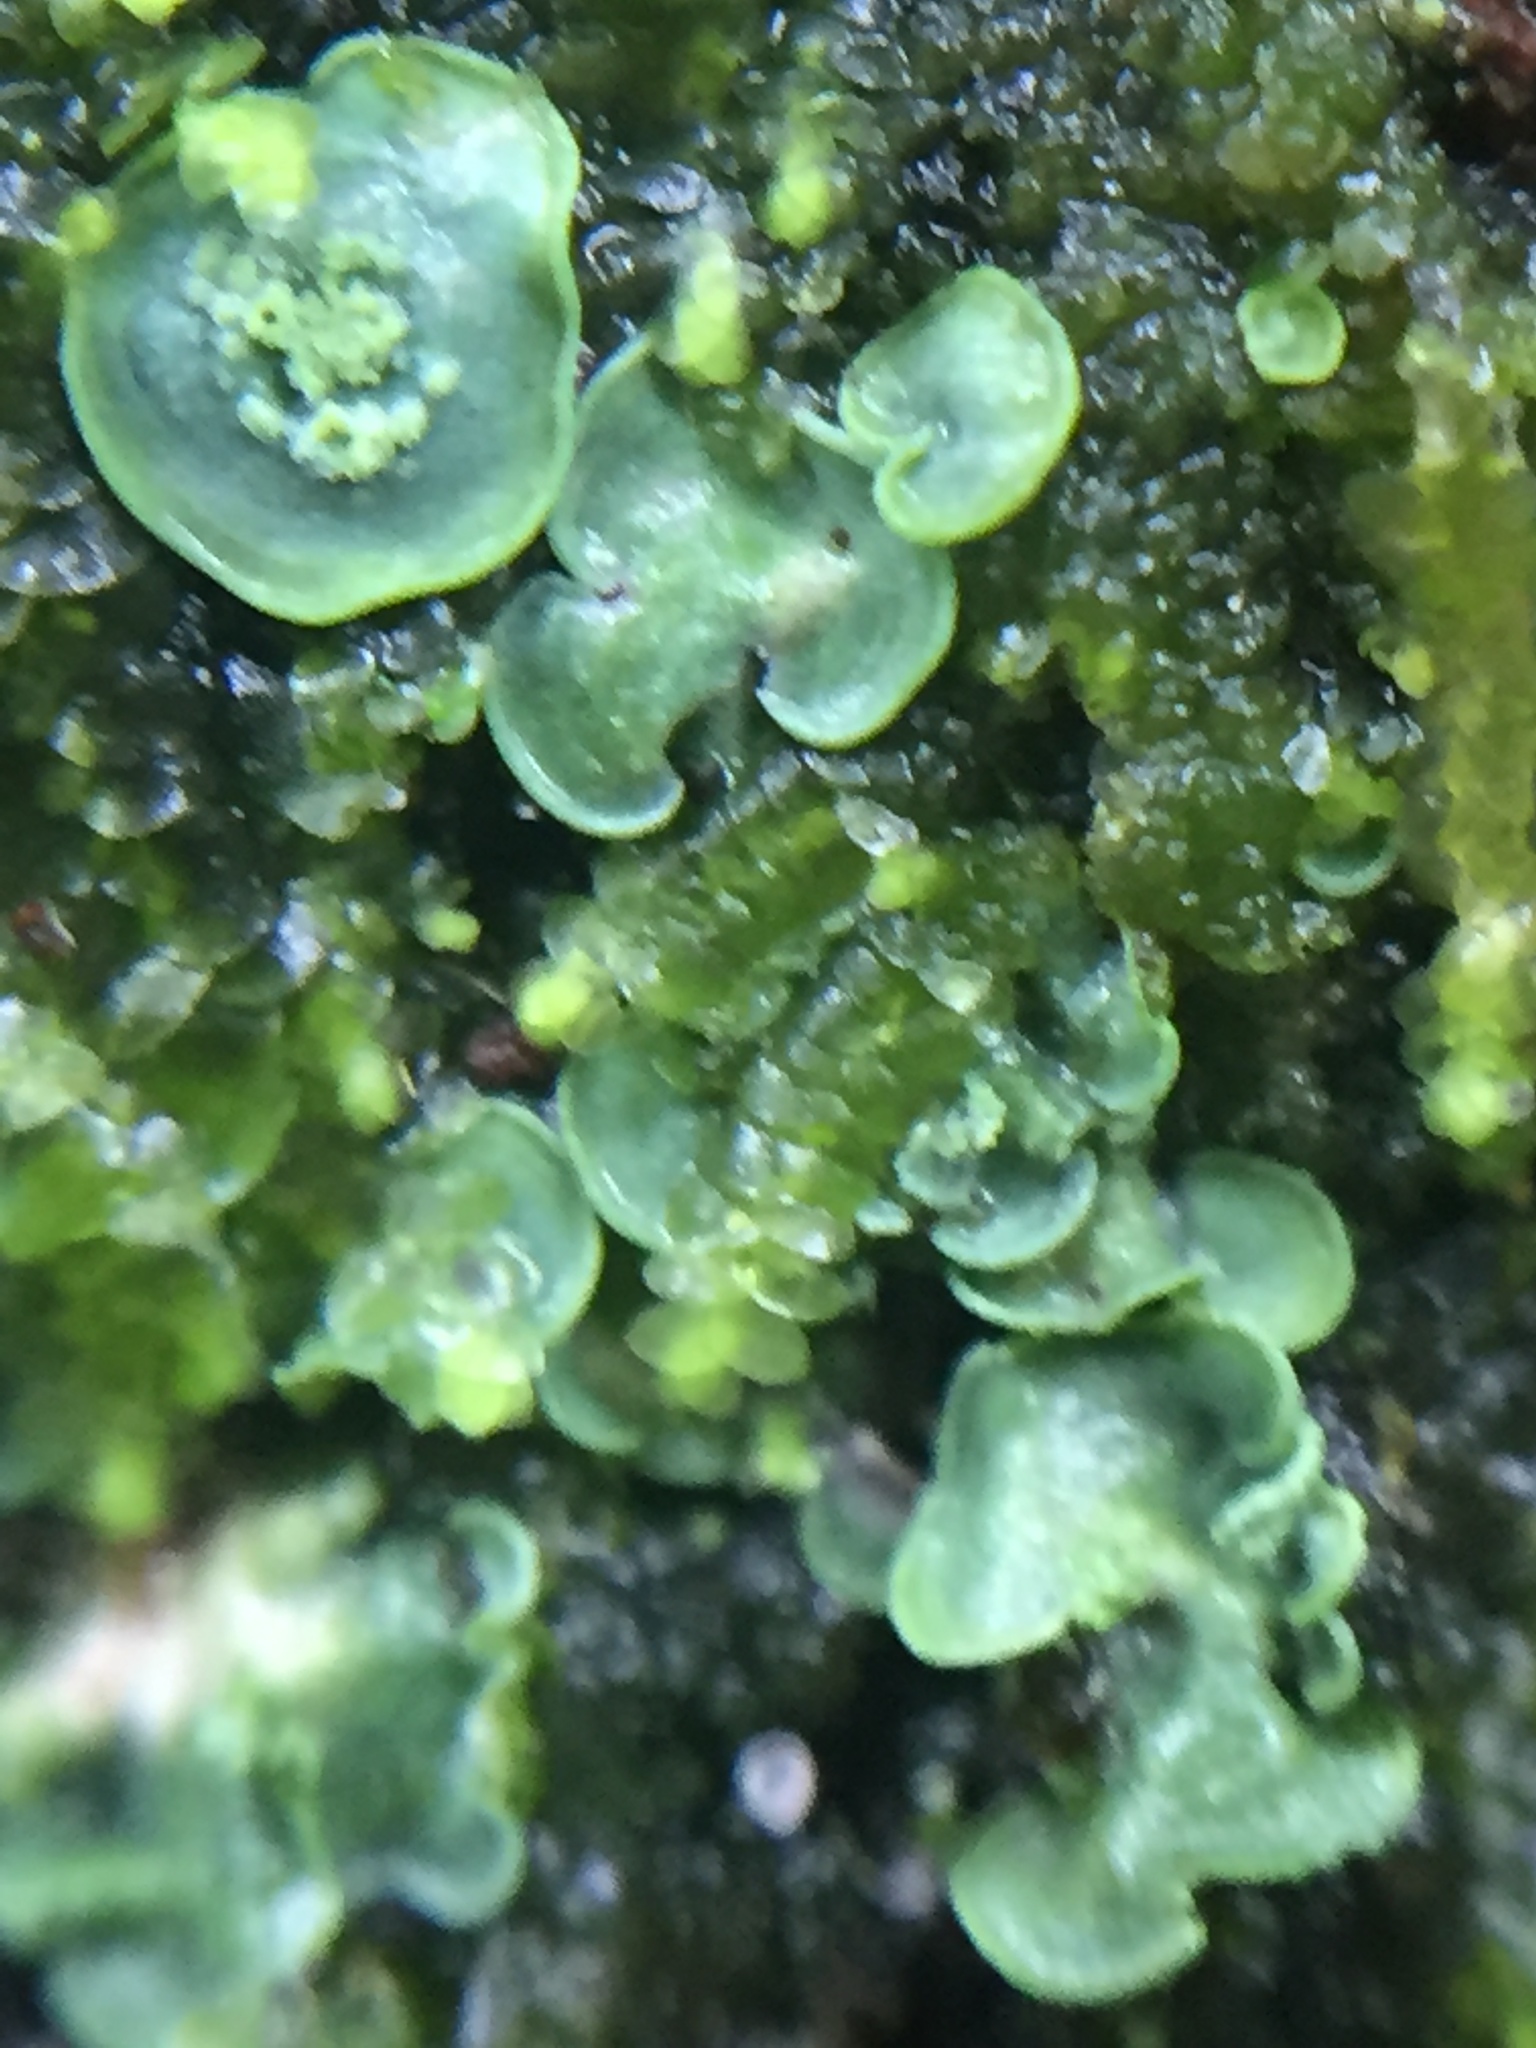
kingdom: Fungi
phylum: Ascomycota
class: Eurotiomycetes
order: Verrucariales
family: Verrucariaceae
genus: Normandina
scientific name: Normandina pulchella
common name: Elf ears lichen
